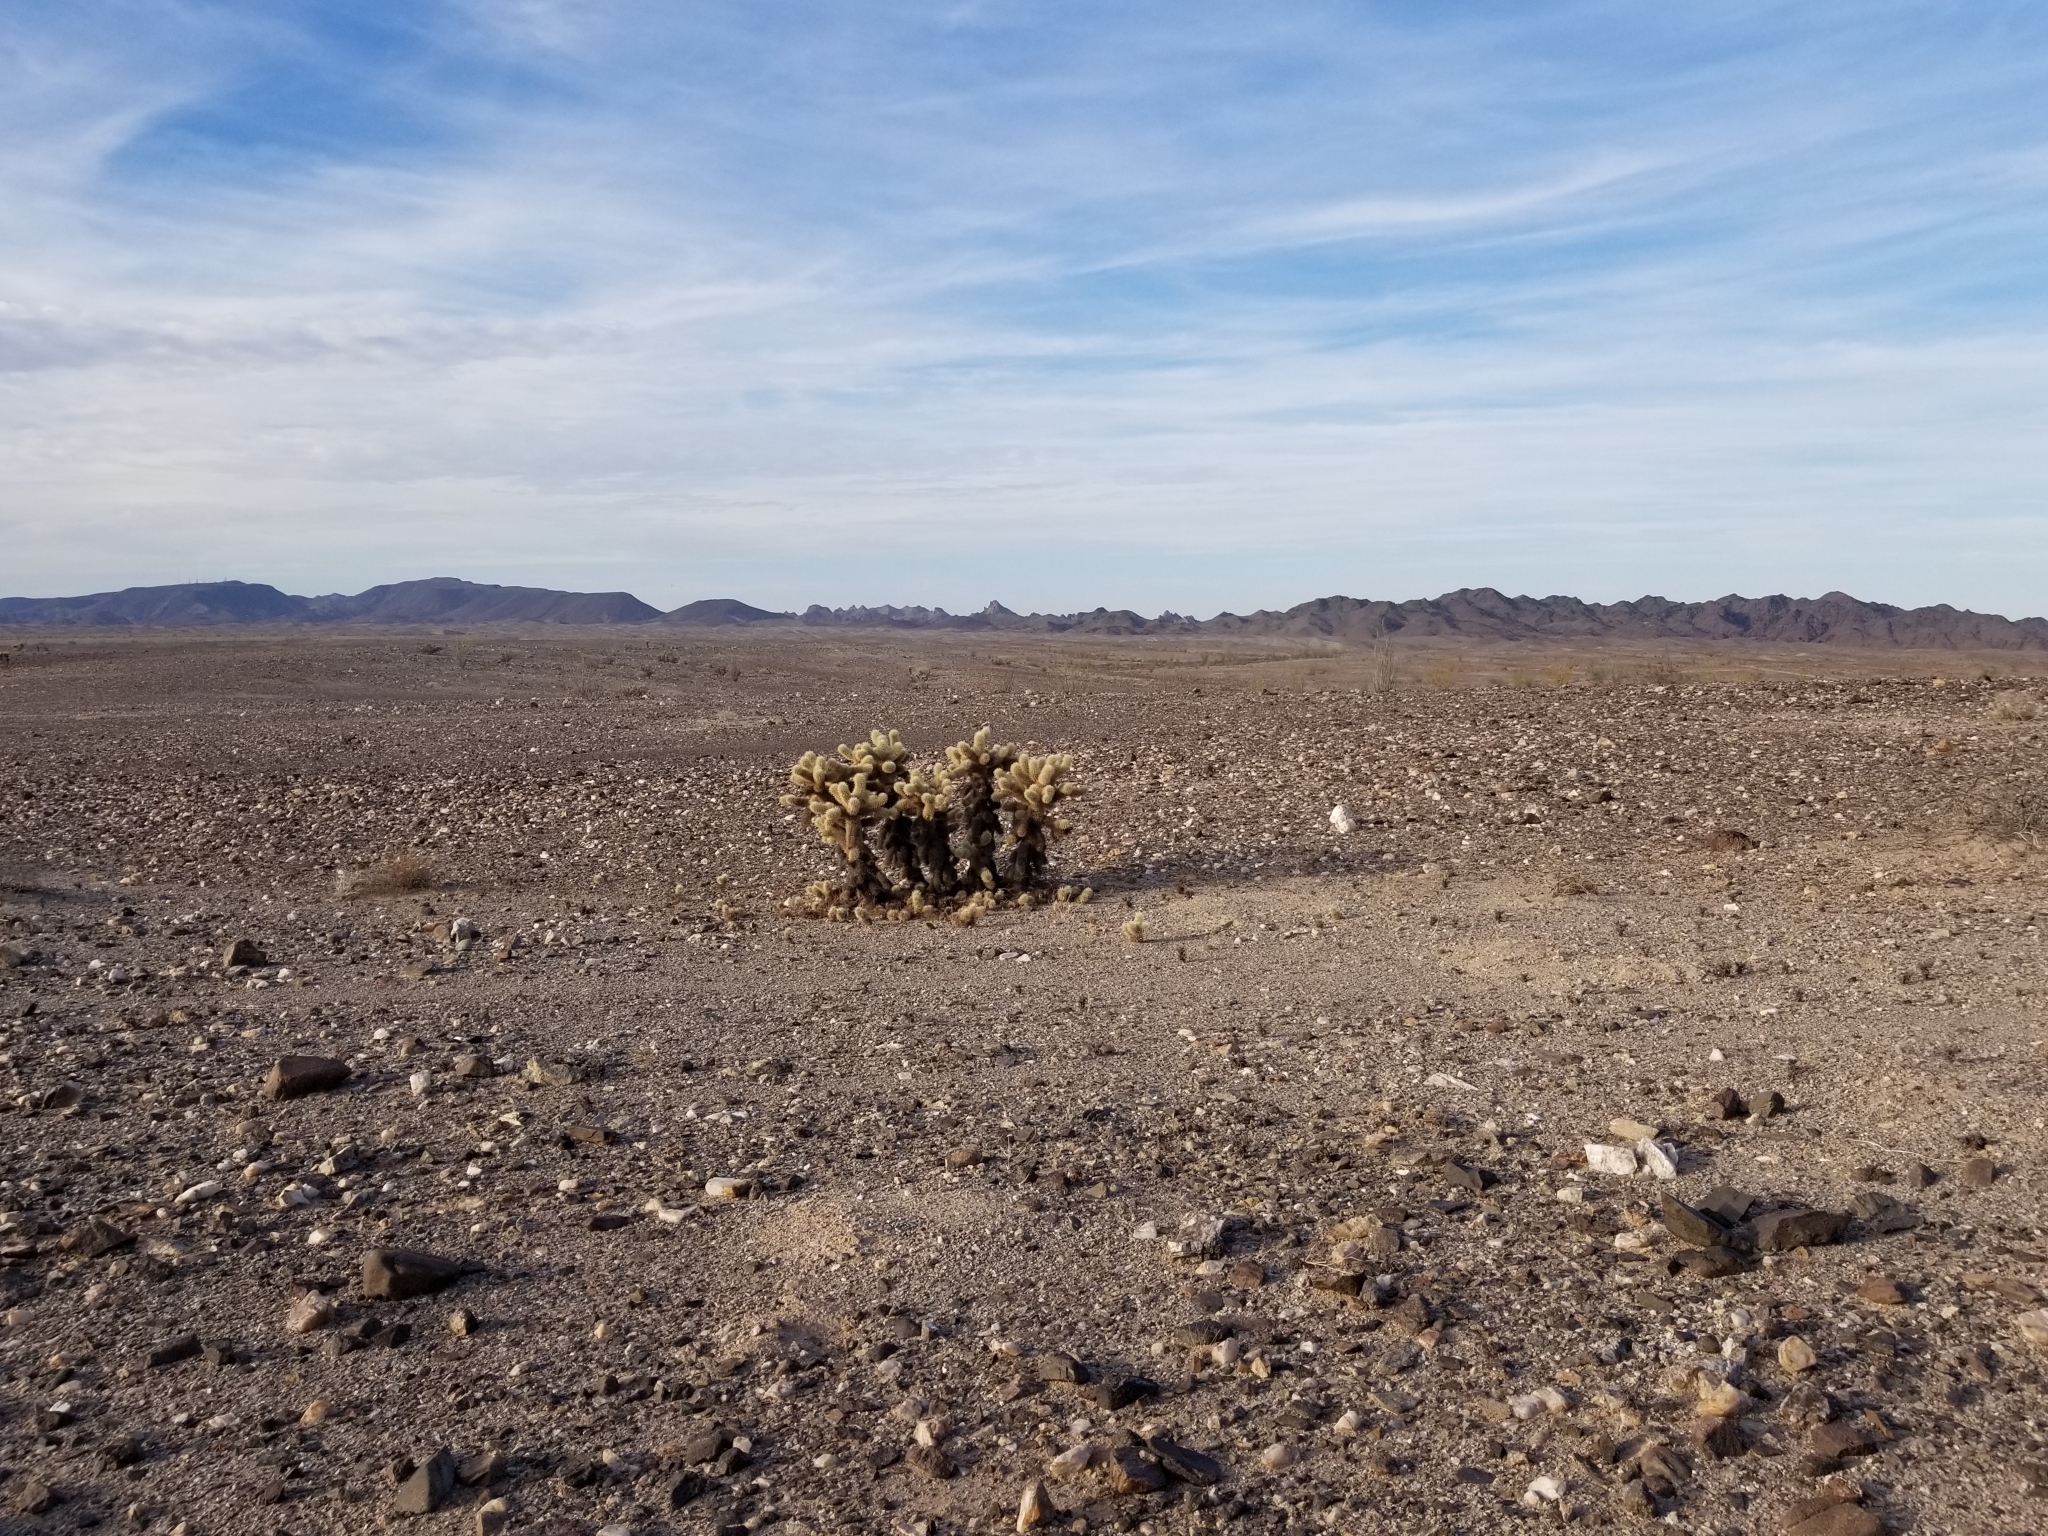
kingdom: Plantae
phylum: Tracheophyta
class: Magnoliopsida
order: Caryophyllales
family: Cactaceae
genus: Cylindropuntia
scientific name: Cylindropuntia fosbergii
